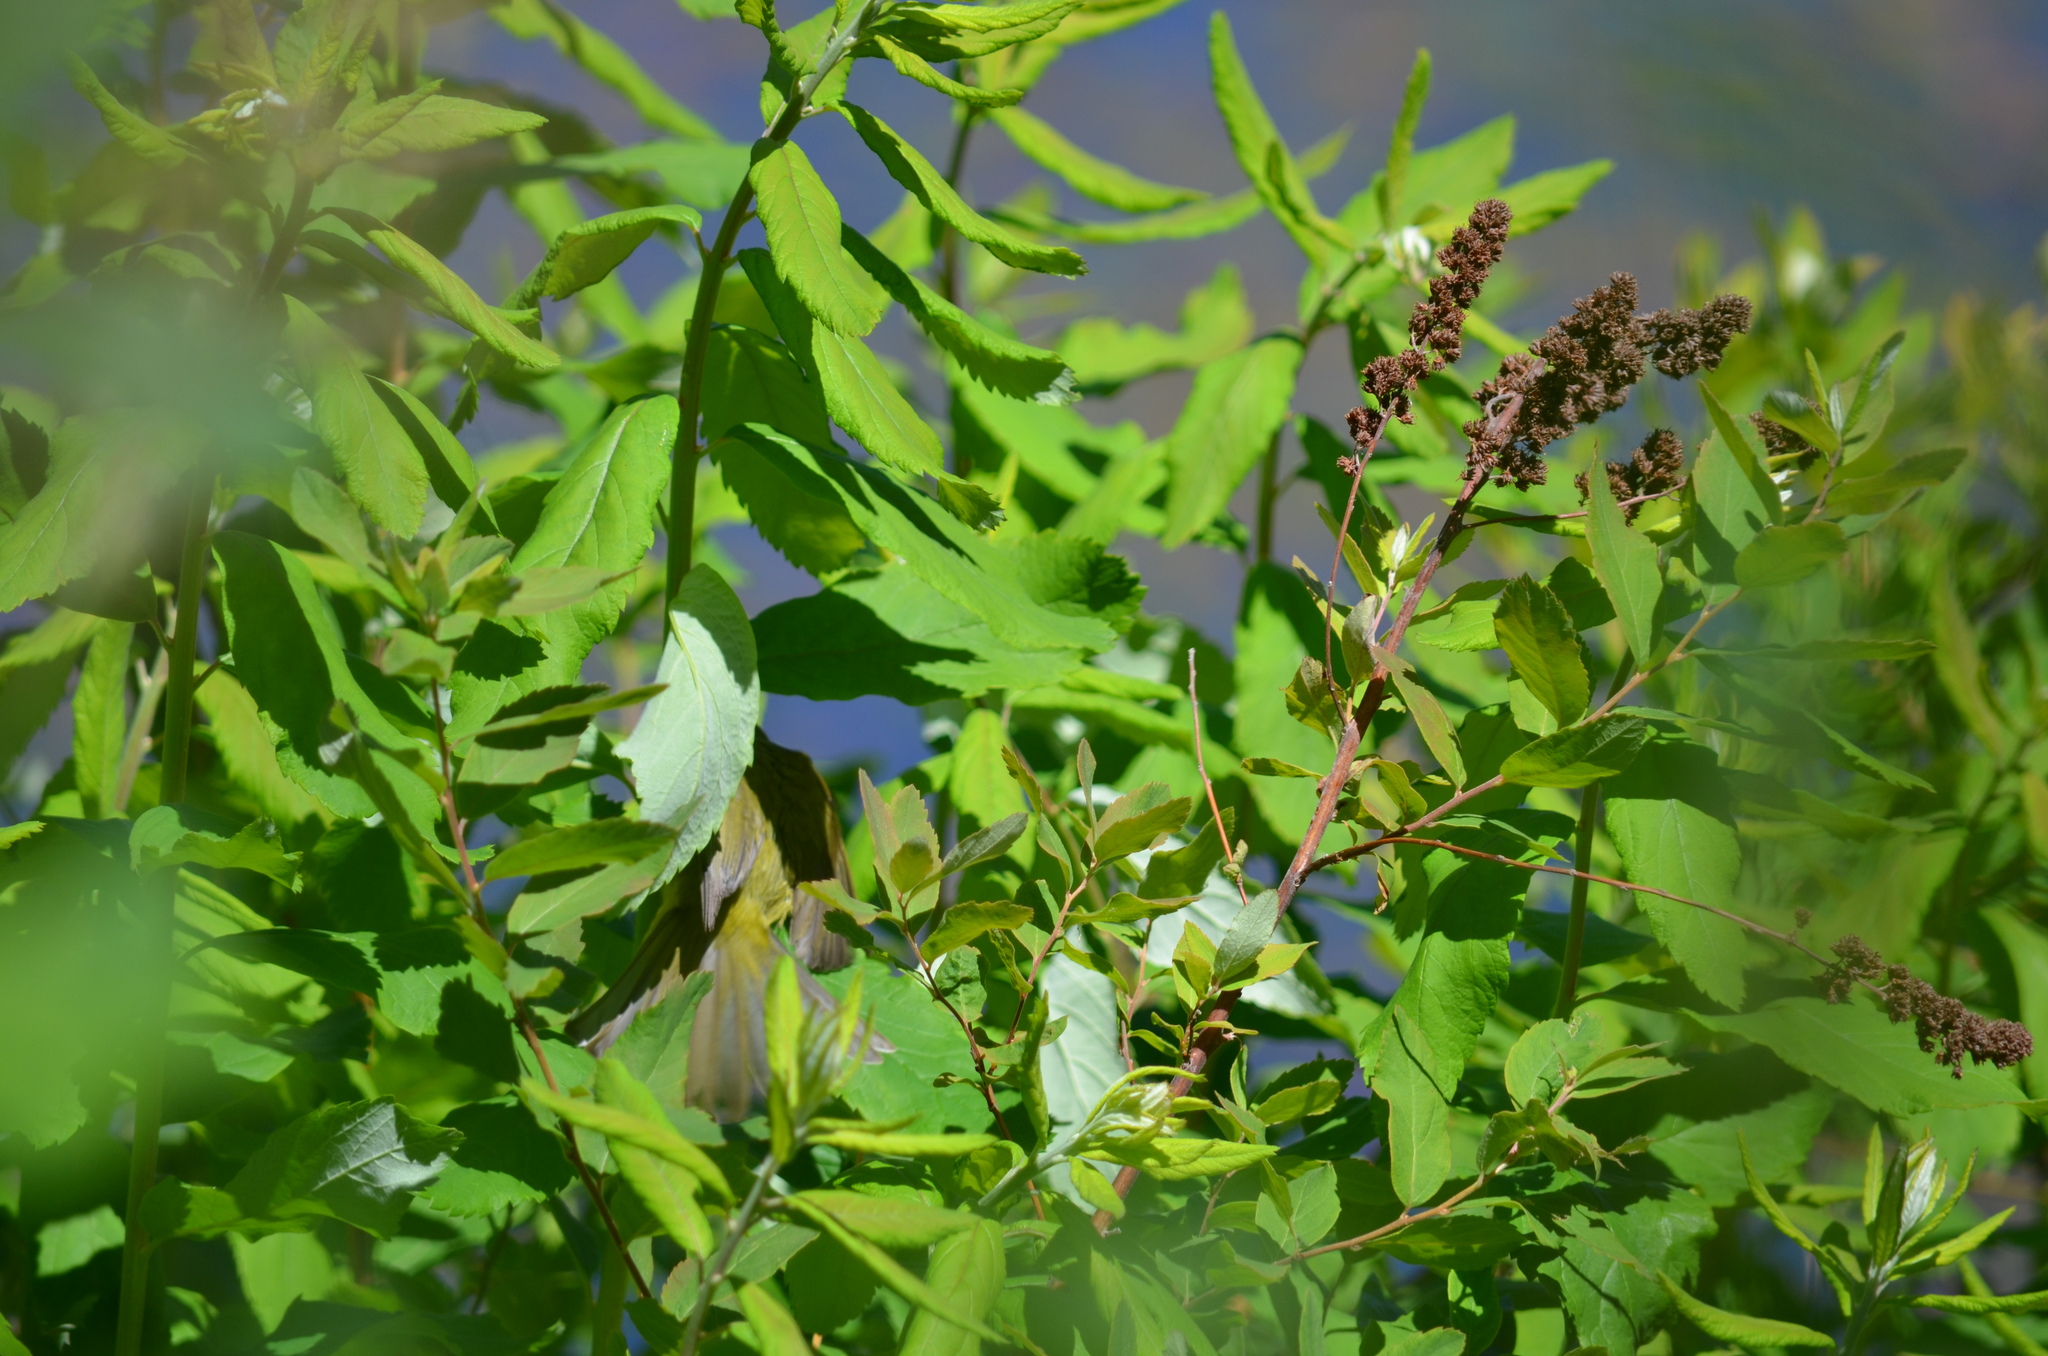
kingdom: Animalia
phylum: Chordata
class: Aves
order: Passeriformes
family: Parulidae
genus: Leiothlypis
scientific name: Leiothlypis celata
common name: Orange-crowned warbler
